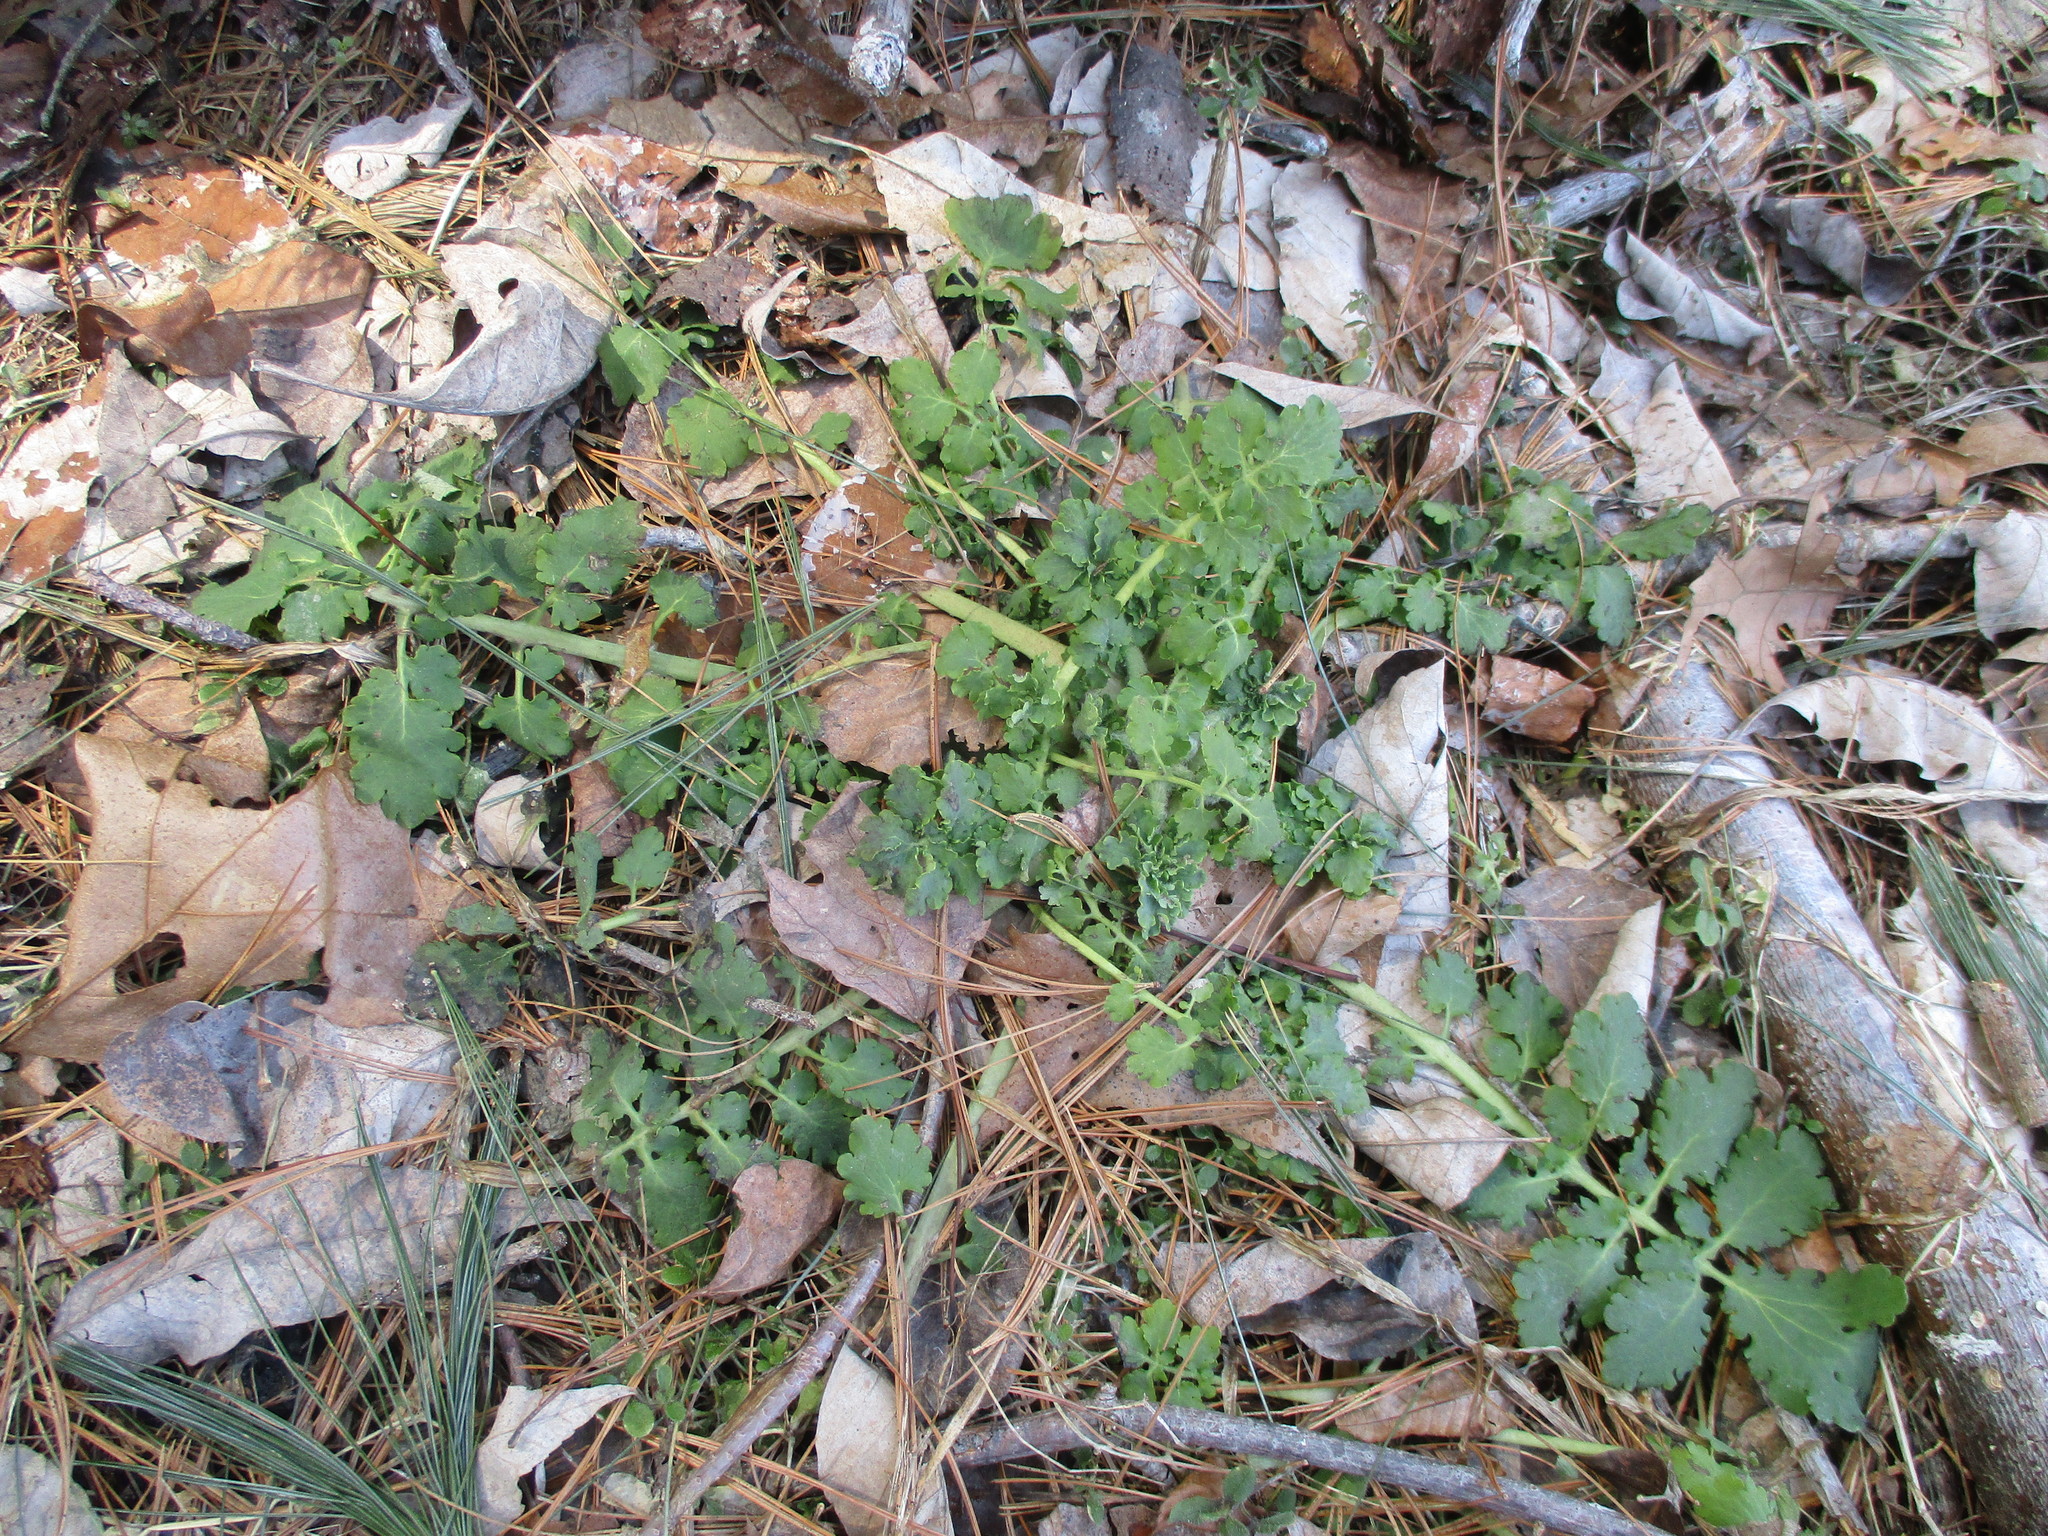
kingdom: Plantae
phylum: Tracheophyta
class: Magnoliopsida
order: Ranunculales
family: Papaveraceae
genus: Chelidonium
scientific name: Chelidonium majus
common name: Greater celandine
